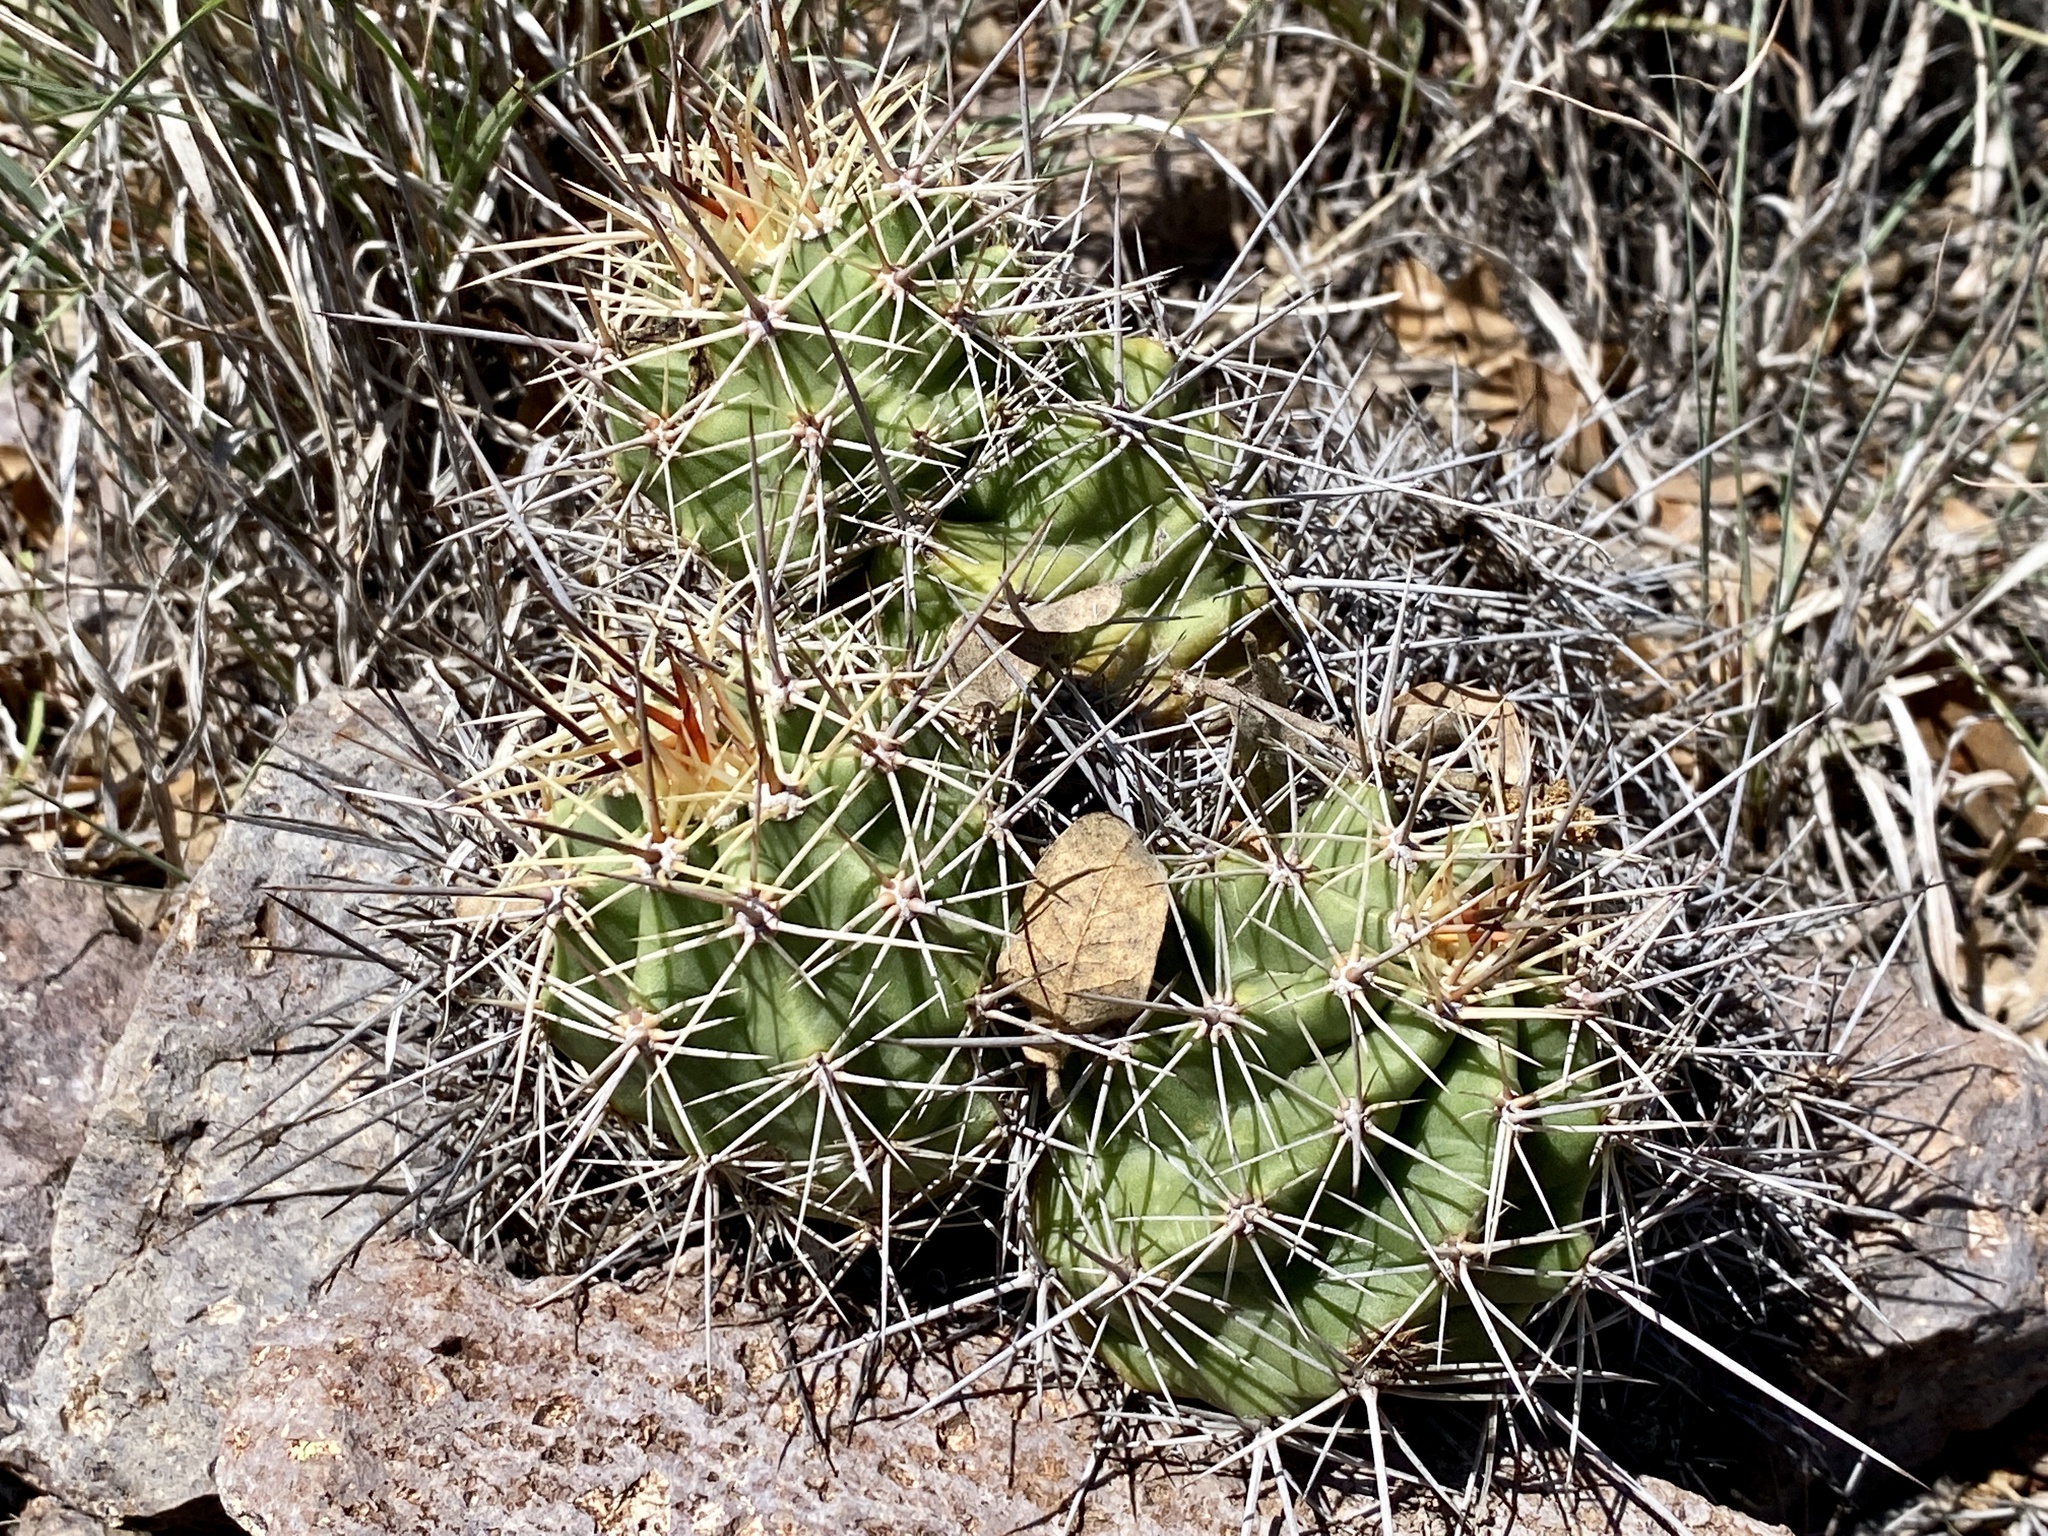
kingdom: Plantae
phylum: Tracheophyta
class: Magnoliopsida
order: Caryophyllales
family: Cactaceae
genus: Echinocereus
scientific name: Echinocereus coccineus
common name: Scarlet hedgehog cactus
